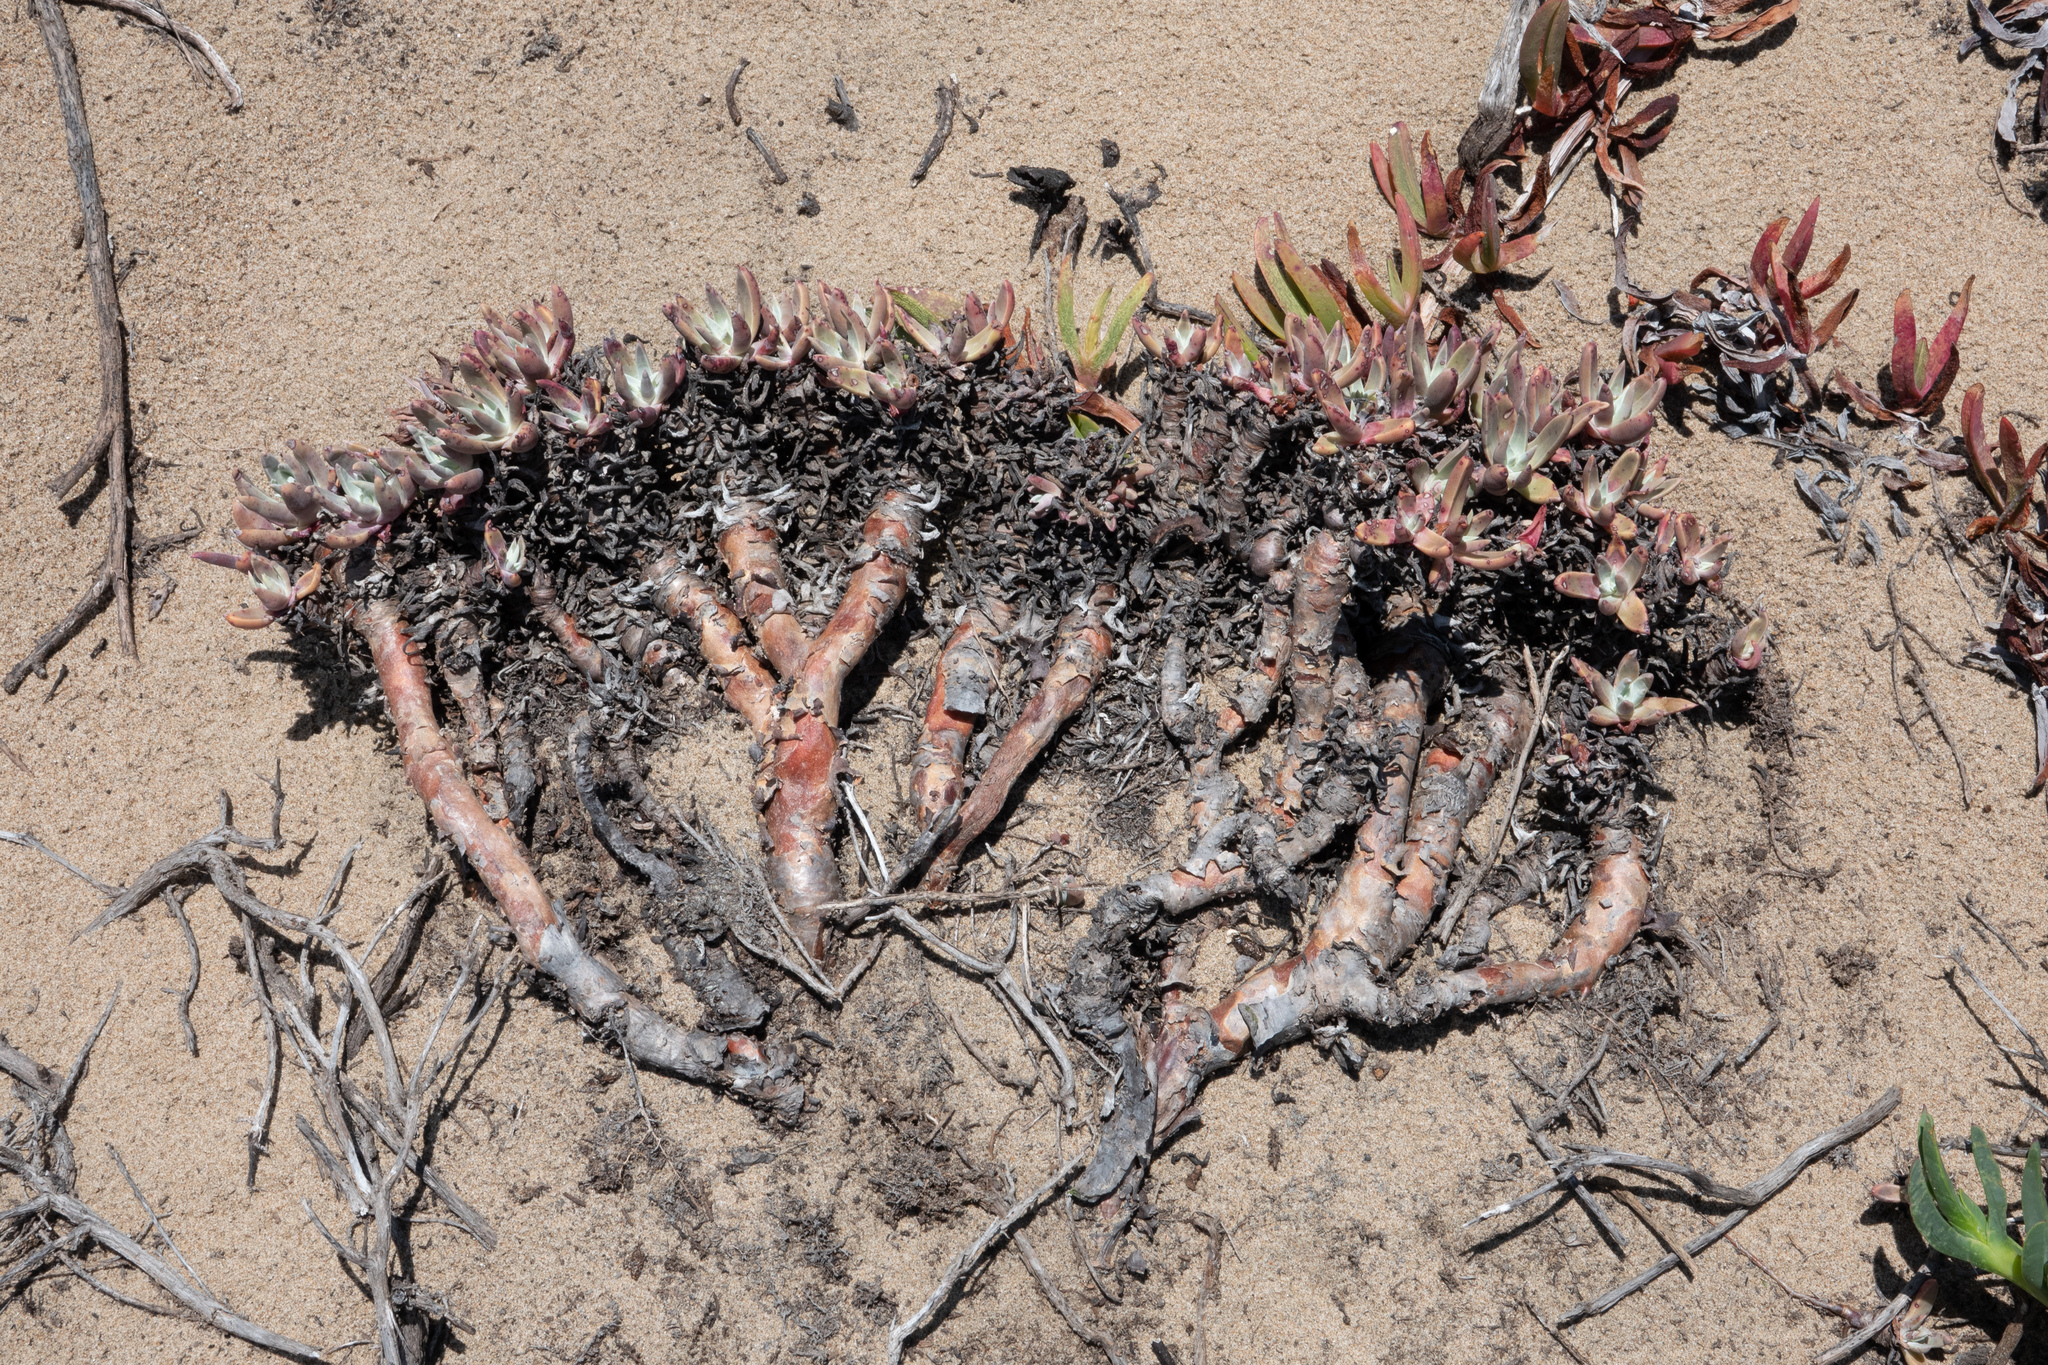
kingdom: Plantae
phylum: Tracheophyta
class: Magnoliopsida
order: Saxifragales
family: Crassulaceae
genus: Dudleya
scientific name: Dudleya caespitosa
